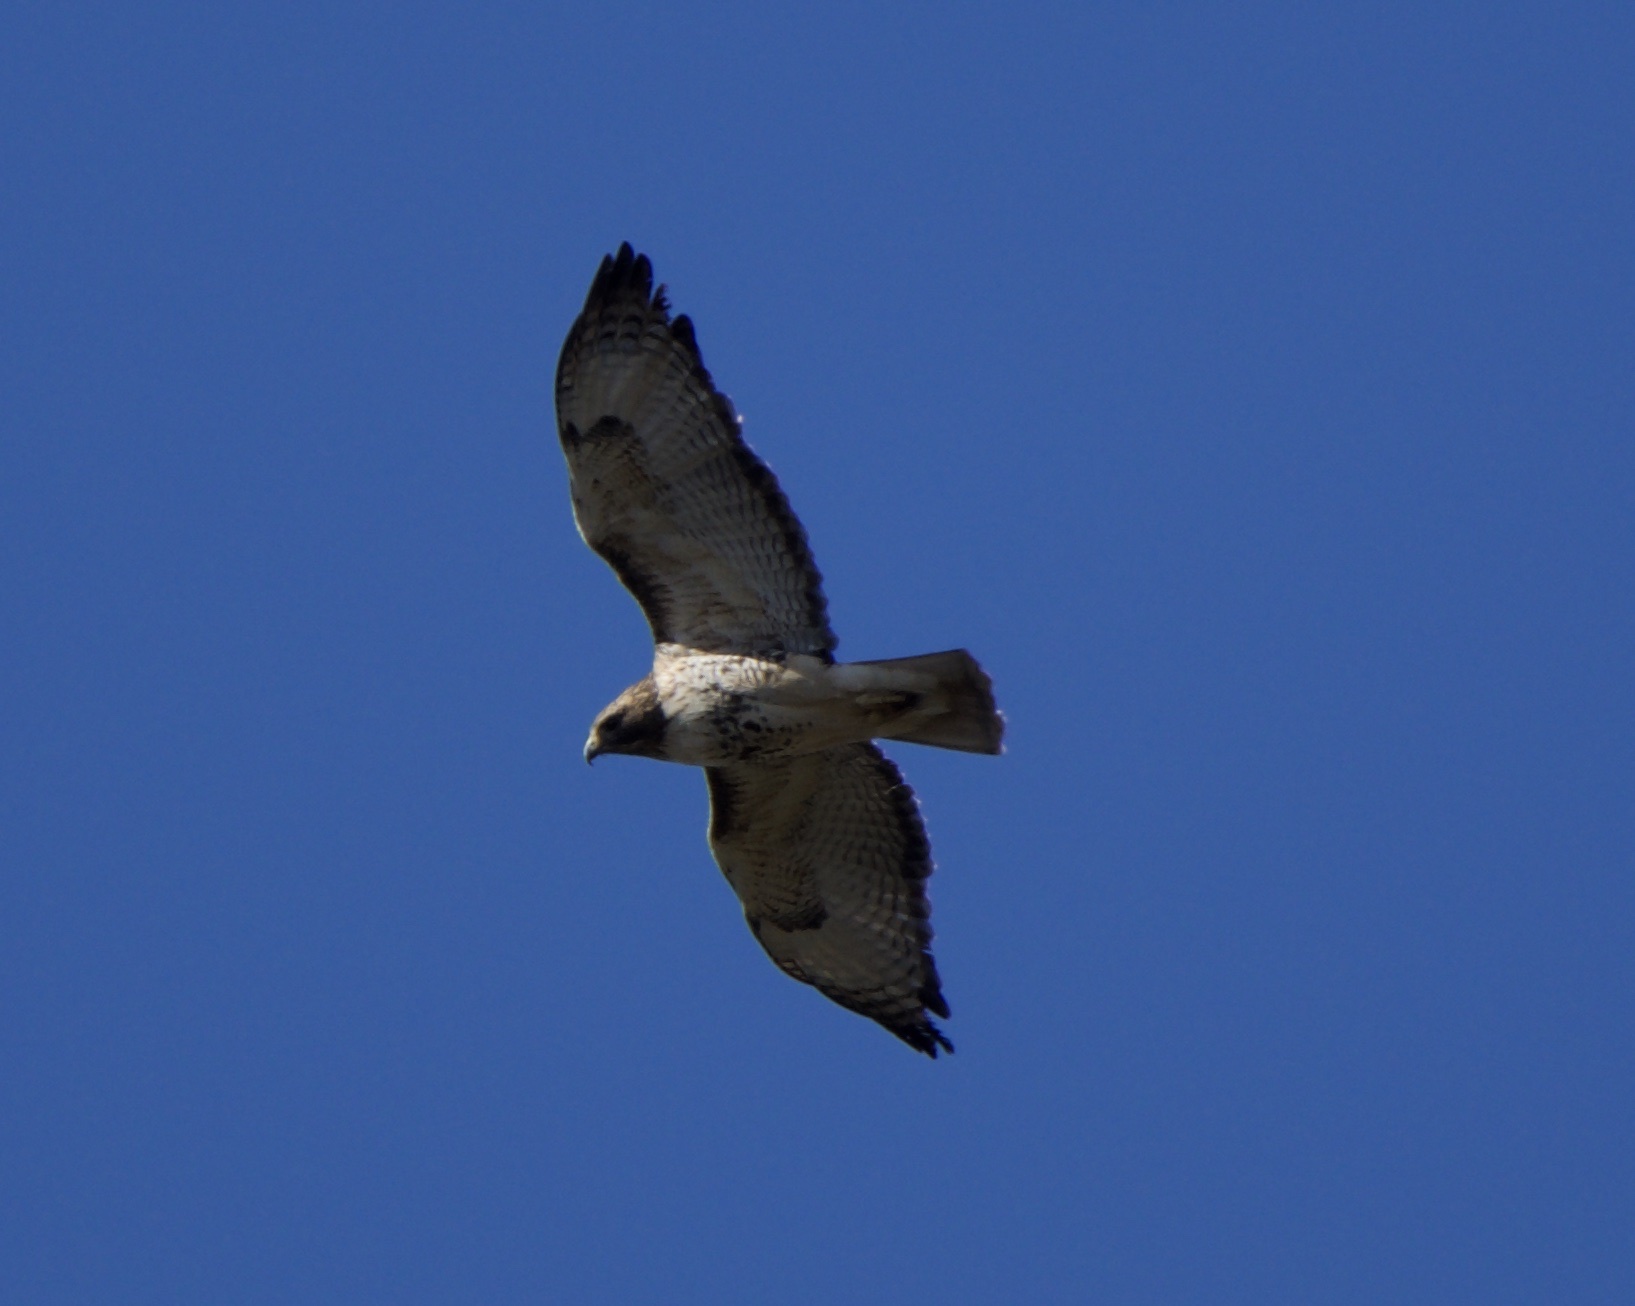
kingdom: Animalia
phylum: Chordata
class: Aves
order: Accipitriformes
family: Accipitridae
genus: Buteo
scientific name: Buteo jamaicensis
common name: Red-tailed hawk
